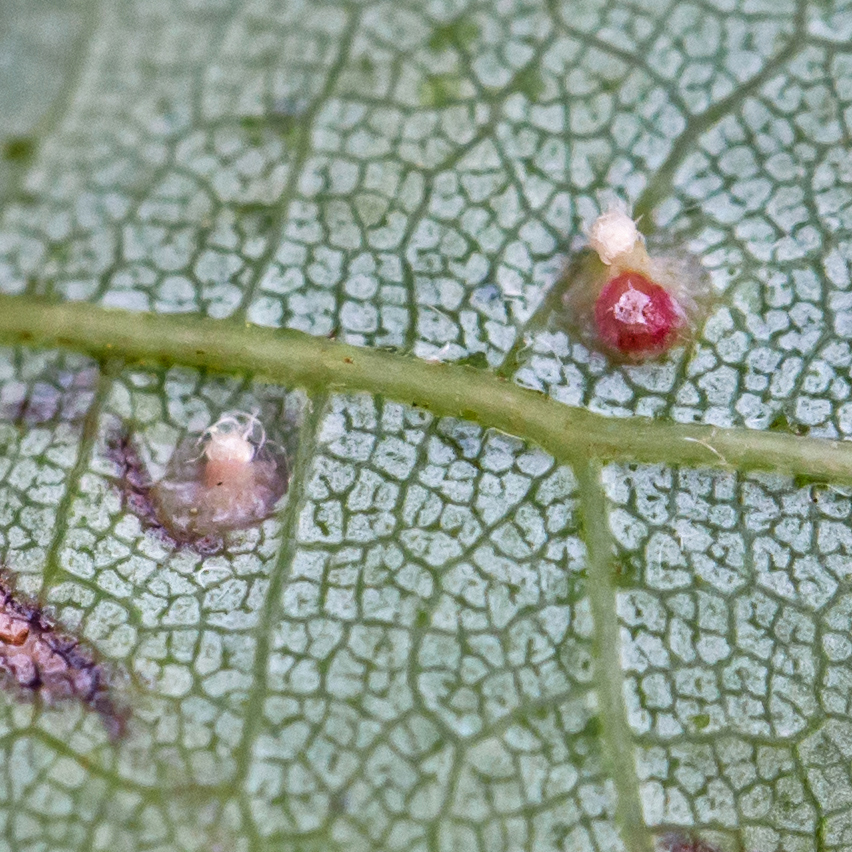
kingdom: Animalia
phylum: Arthropoda
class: Arachnida
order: Trombidiformes
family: Eriophyidae
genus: Vasates
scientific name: Vasates quadripedes
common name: Maple bladder gall mite
